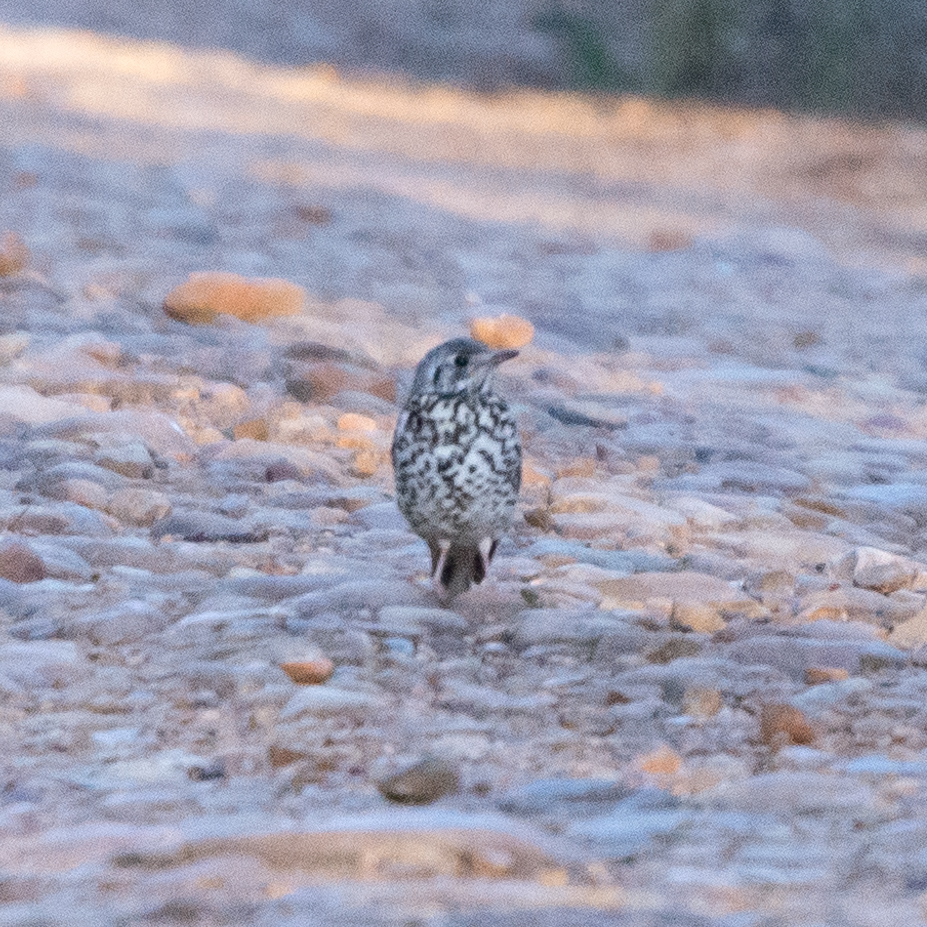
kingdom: Animalia
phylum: Chordata
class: Aves
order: Passeriformes
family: Turdidae
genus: Turdus
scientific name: Turdus viscivorus
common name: Mistle thrush
